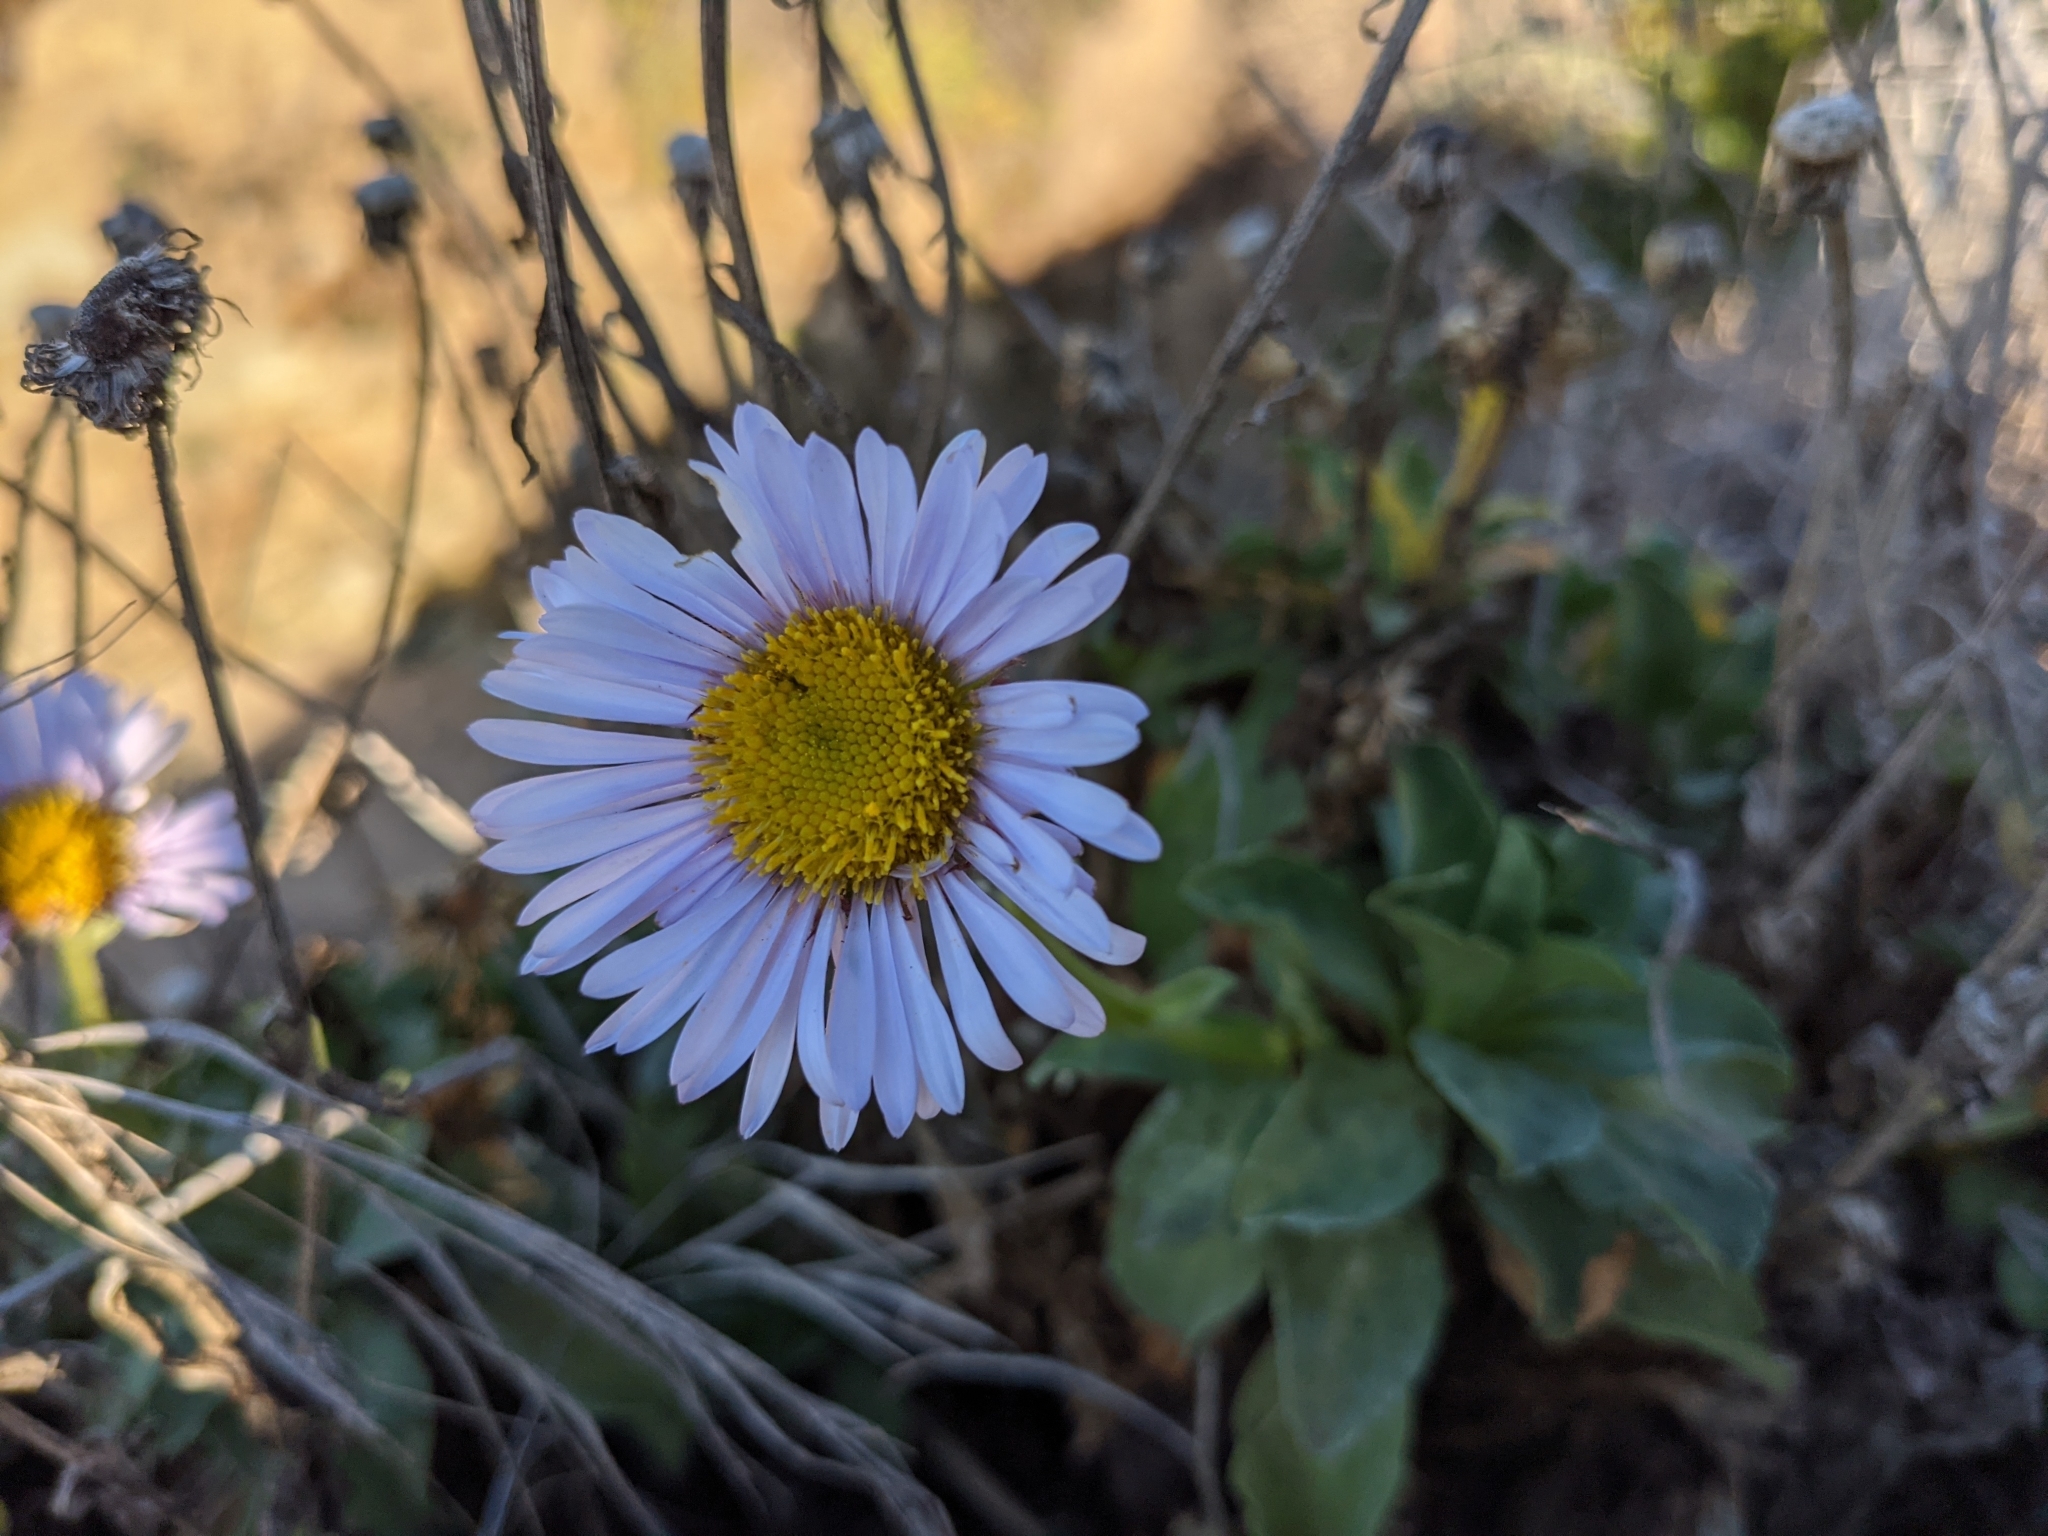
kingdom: Plantae
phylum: Tracheophyta
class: Magnoliopsida
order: Asterales
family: Asteraceae
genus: Erigeron
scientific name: Erigeron glaucus
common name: Seaside daisy
